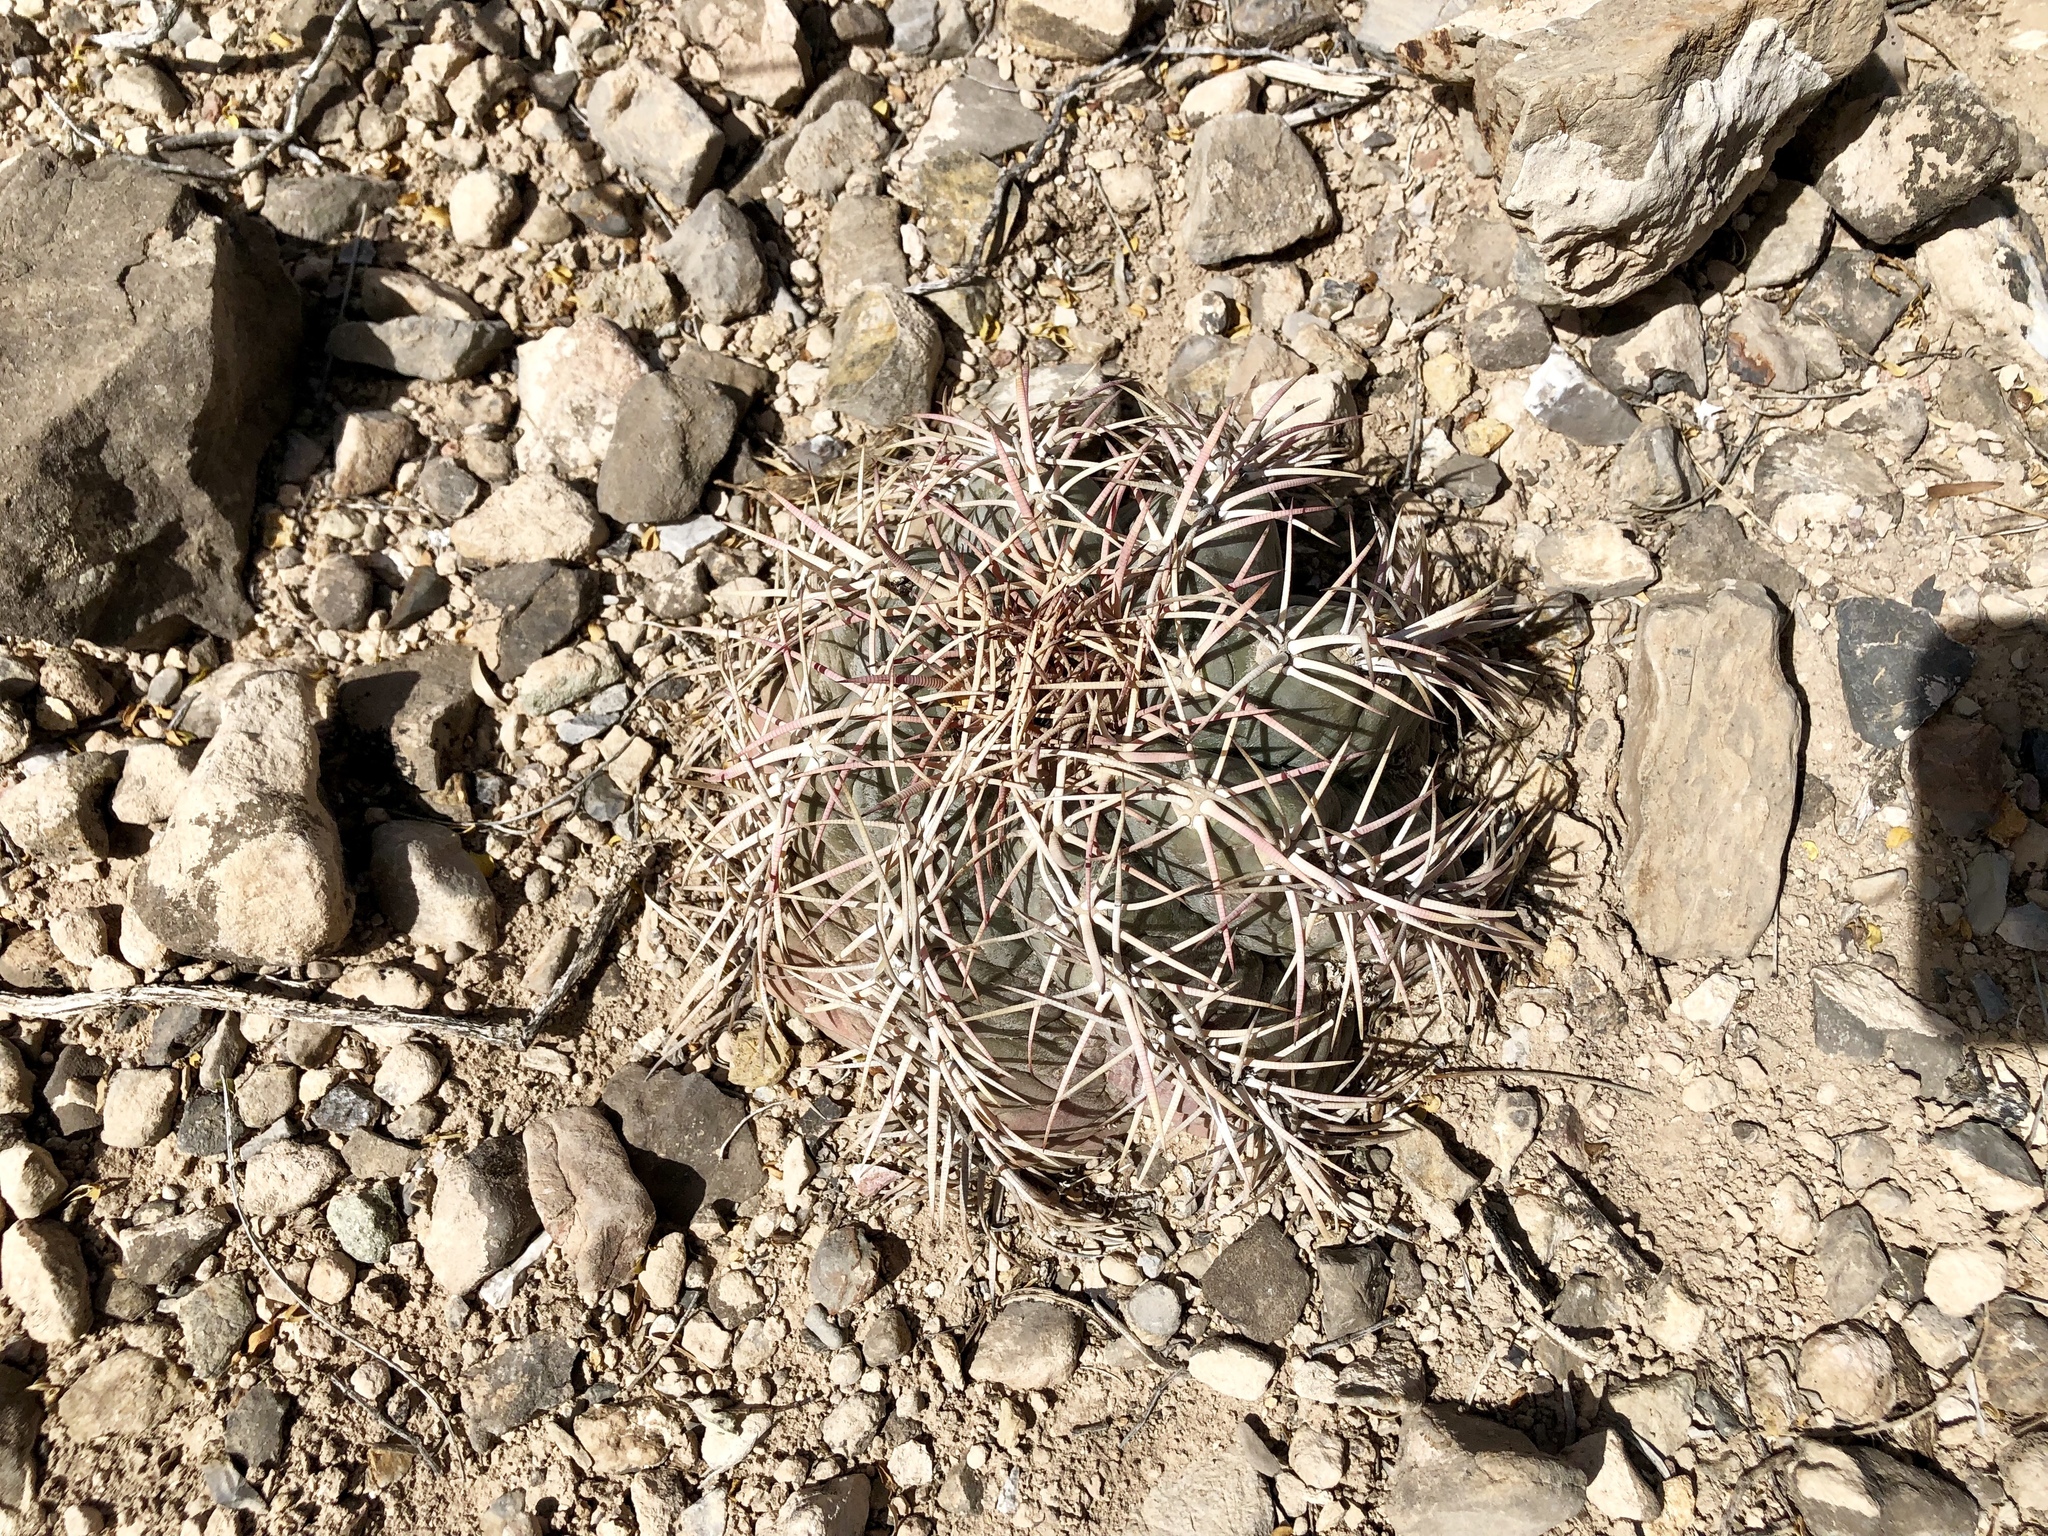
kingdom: Plantae
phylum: Tracheophyta
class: Magnoliopsida
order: Caryophyllales
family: Cactaceae
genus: Echinocactus
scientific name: Echinocactus horizonthalonius
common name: Devilshead
